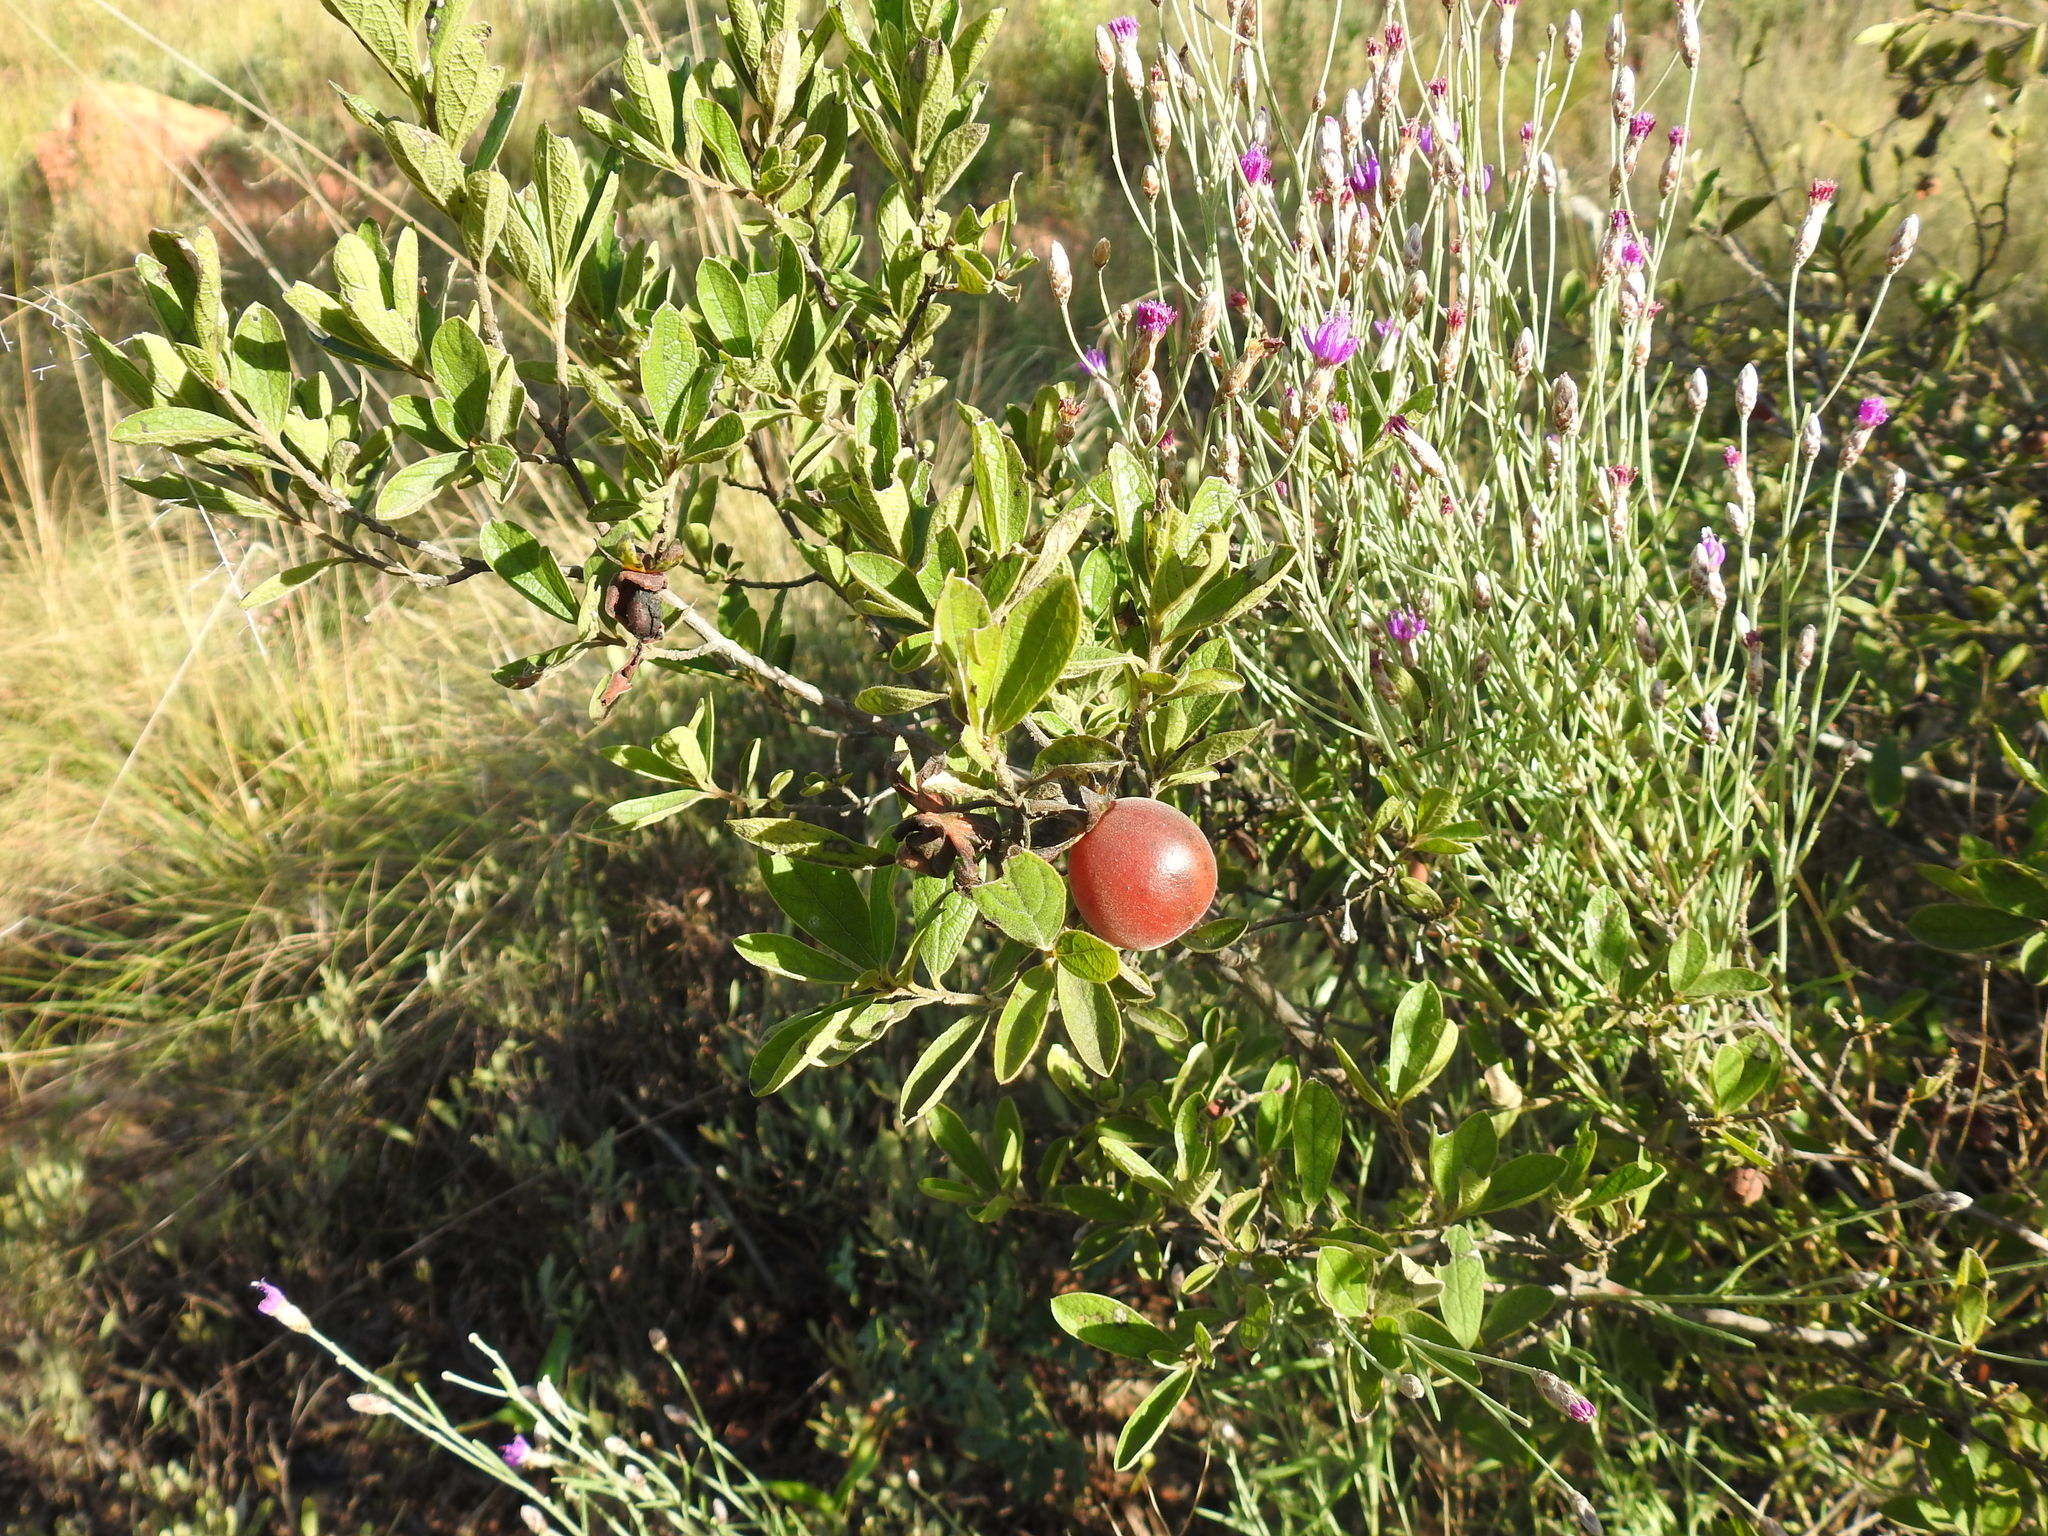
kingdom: Plantae
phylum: Tracheophyta
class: Magnoliopsida
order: Ericales
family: Ebenaceae
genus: Diospyros
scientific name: Diospyros lycioides
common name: Red star apple
